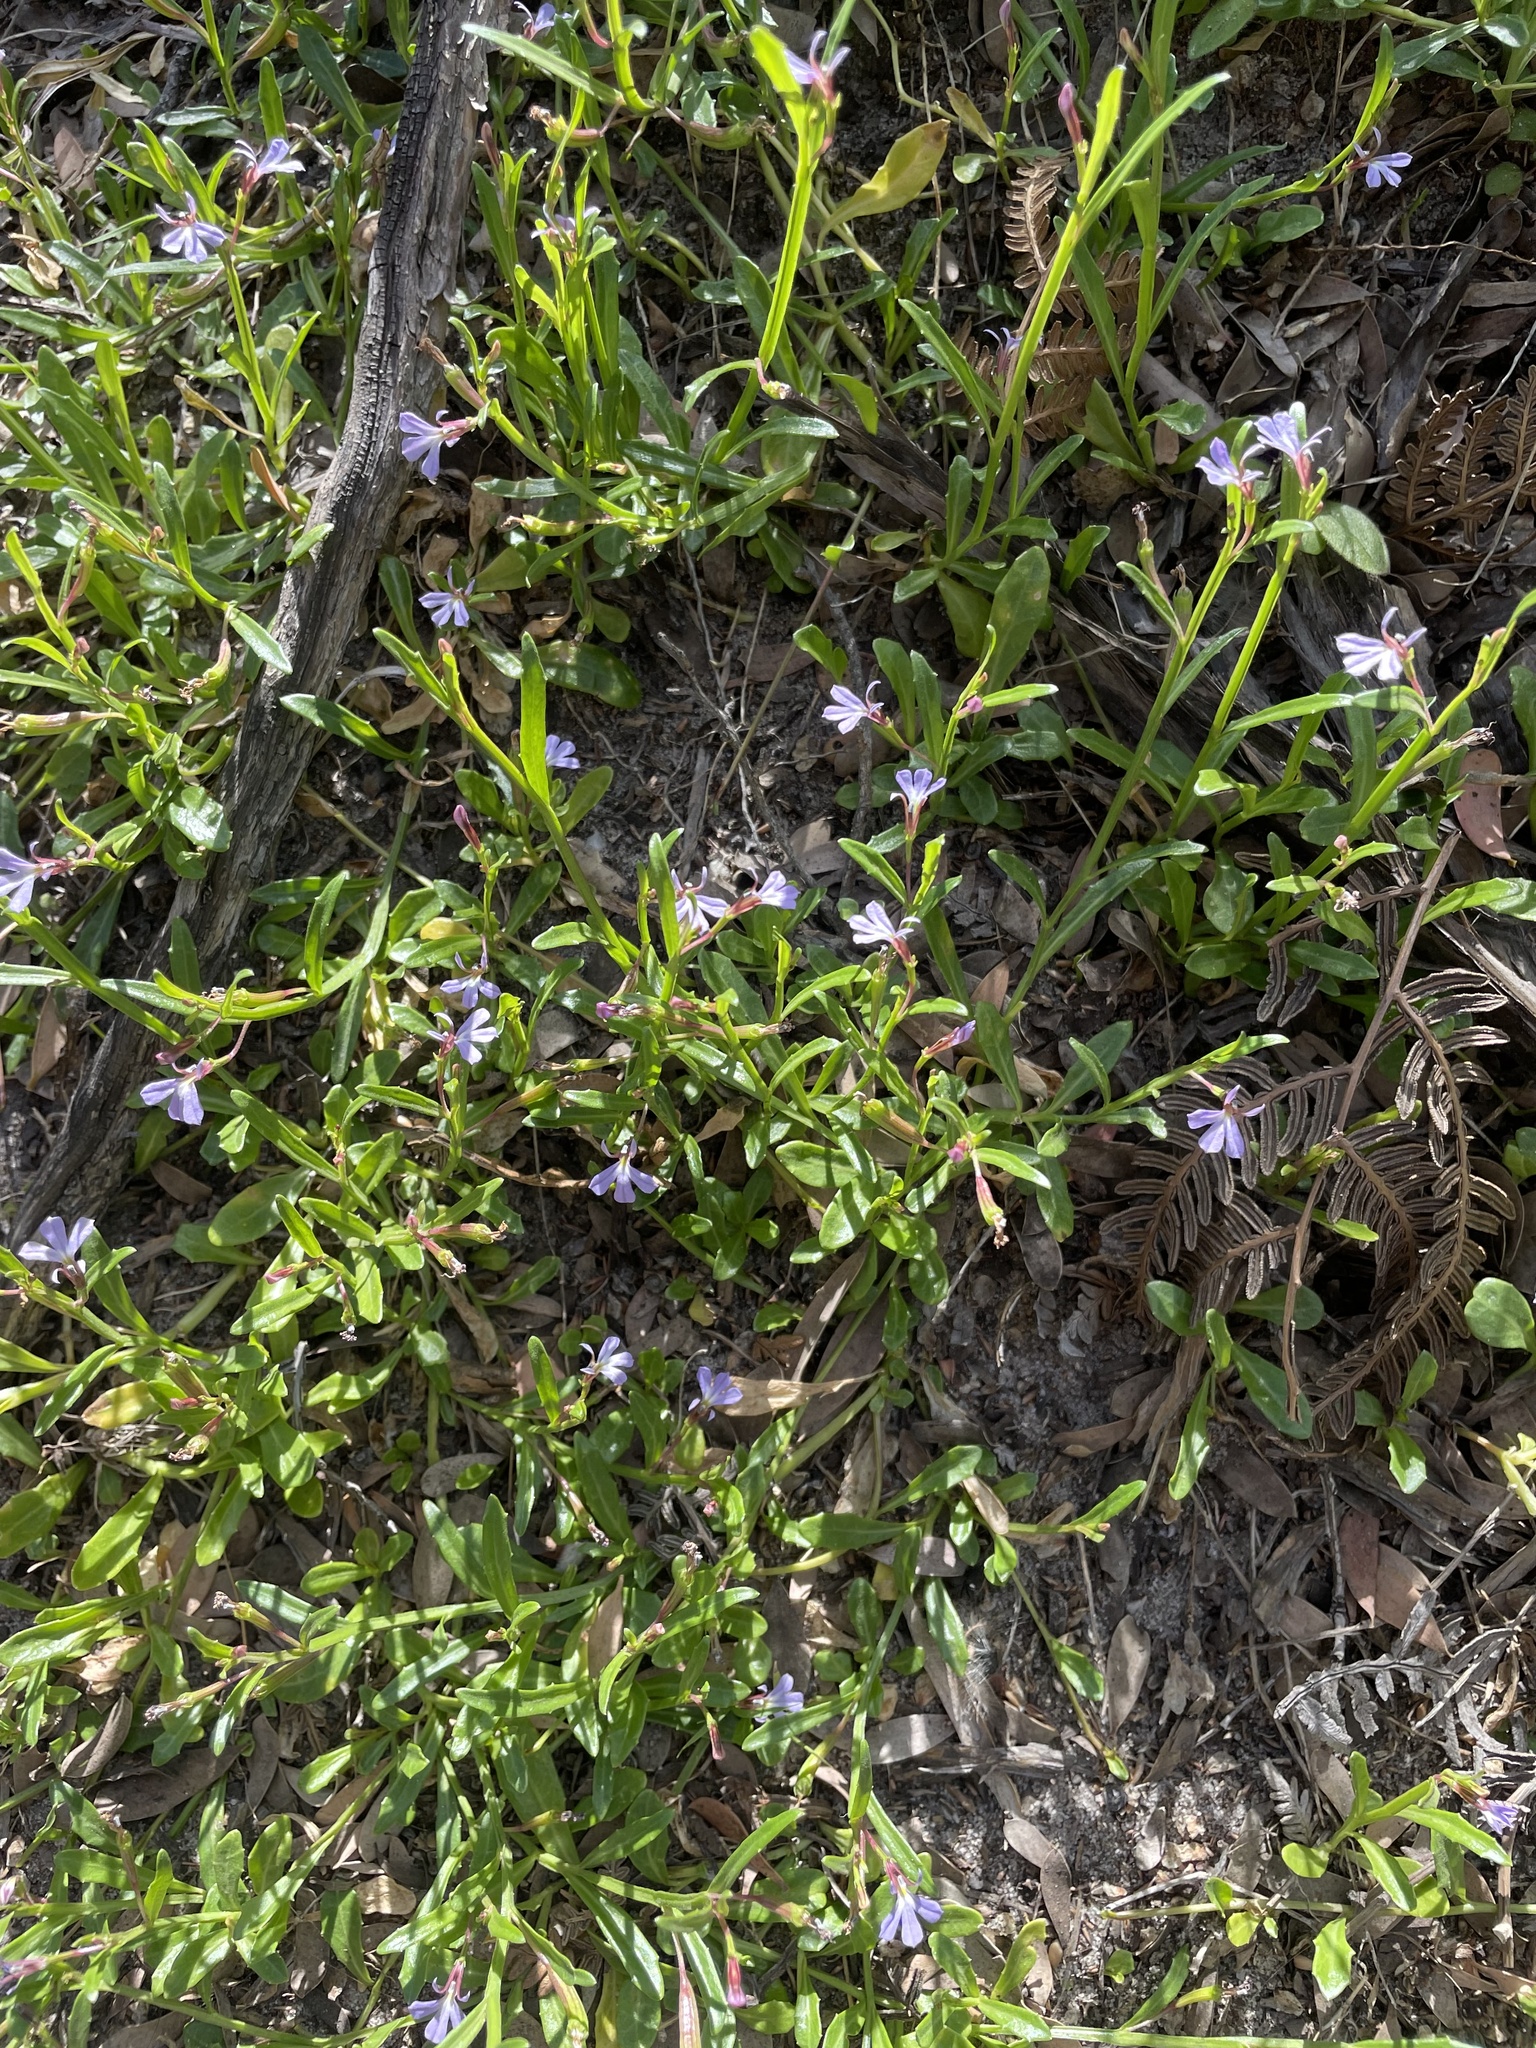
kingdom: Plantae
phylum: Tracheophyta
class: Magnoliopsida
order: Asterales
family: Campanulaceae
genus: Lobelia
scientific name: Lobelia anceps
